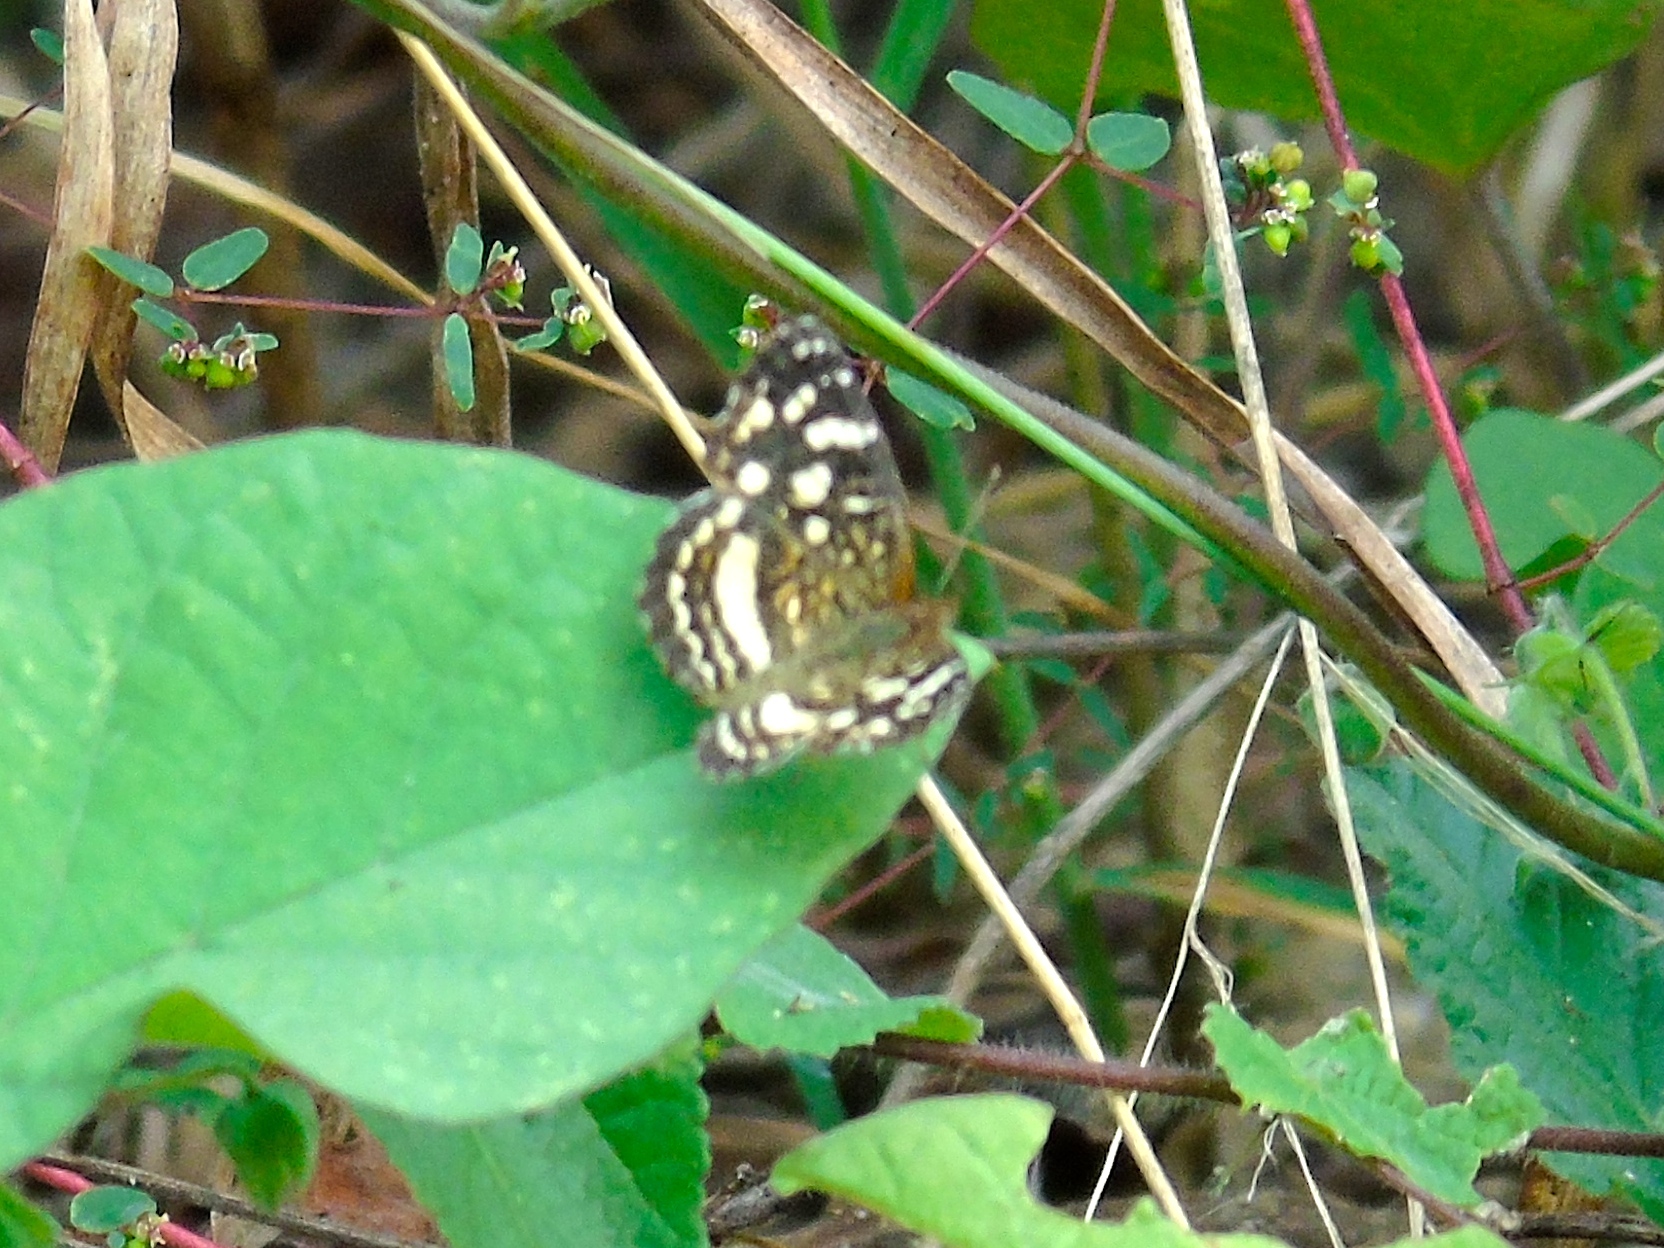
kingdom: Animalia
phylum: Arthropoda
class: Insecta
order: Lepidoptera
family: Nymphalidae
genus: Anthanassa
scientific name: Anthanassa tulcis
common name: Pale-banded crescent
